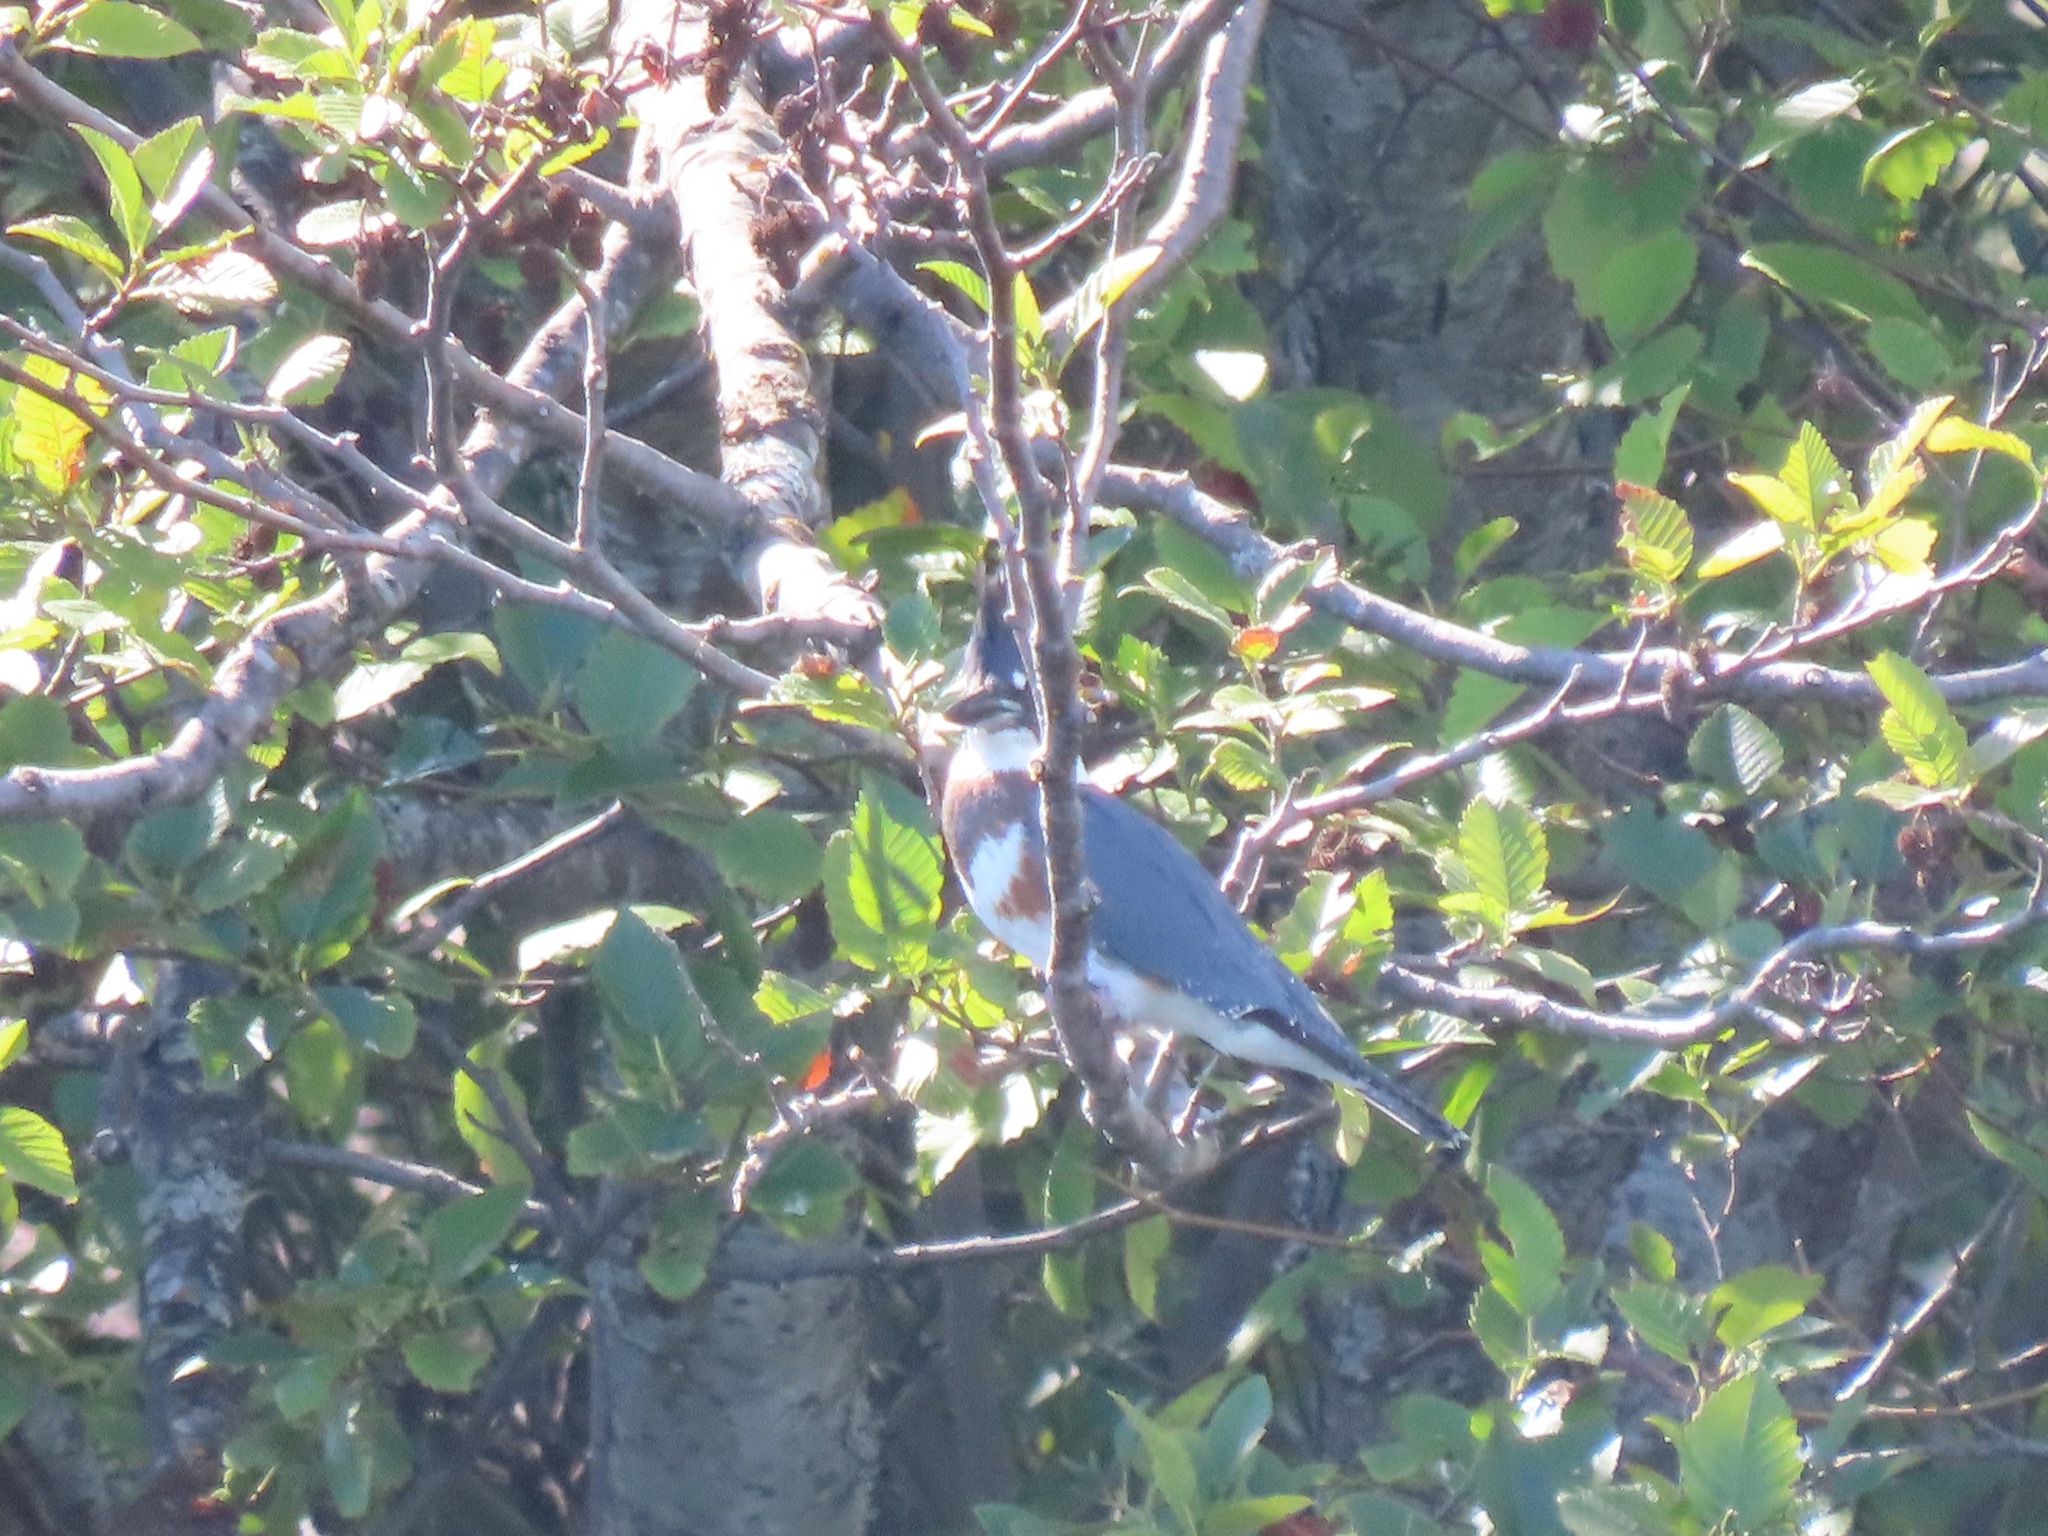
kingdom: Animalia
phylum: Chordata
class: Aves
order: Coraciiformes
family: Alcedinidae
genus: Megaceryle
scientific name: Megaceryle alcyon
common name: Belted kingfisher
